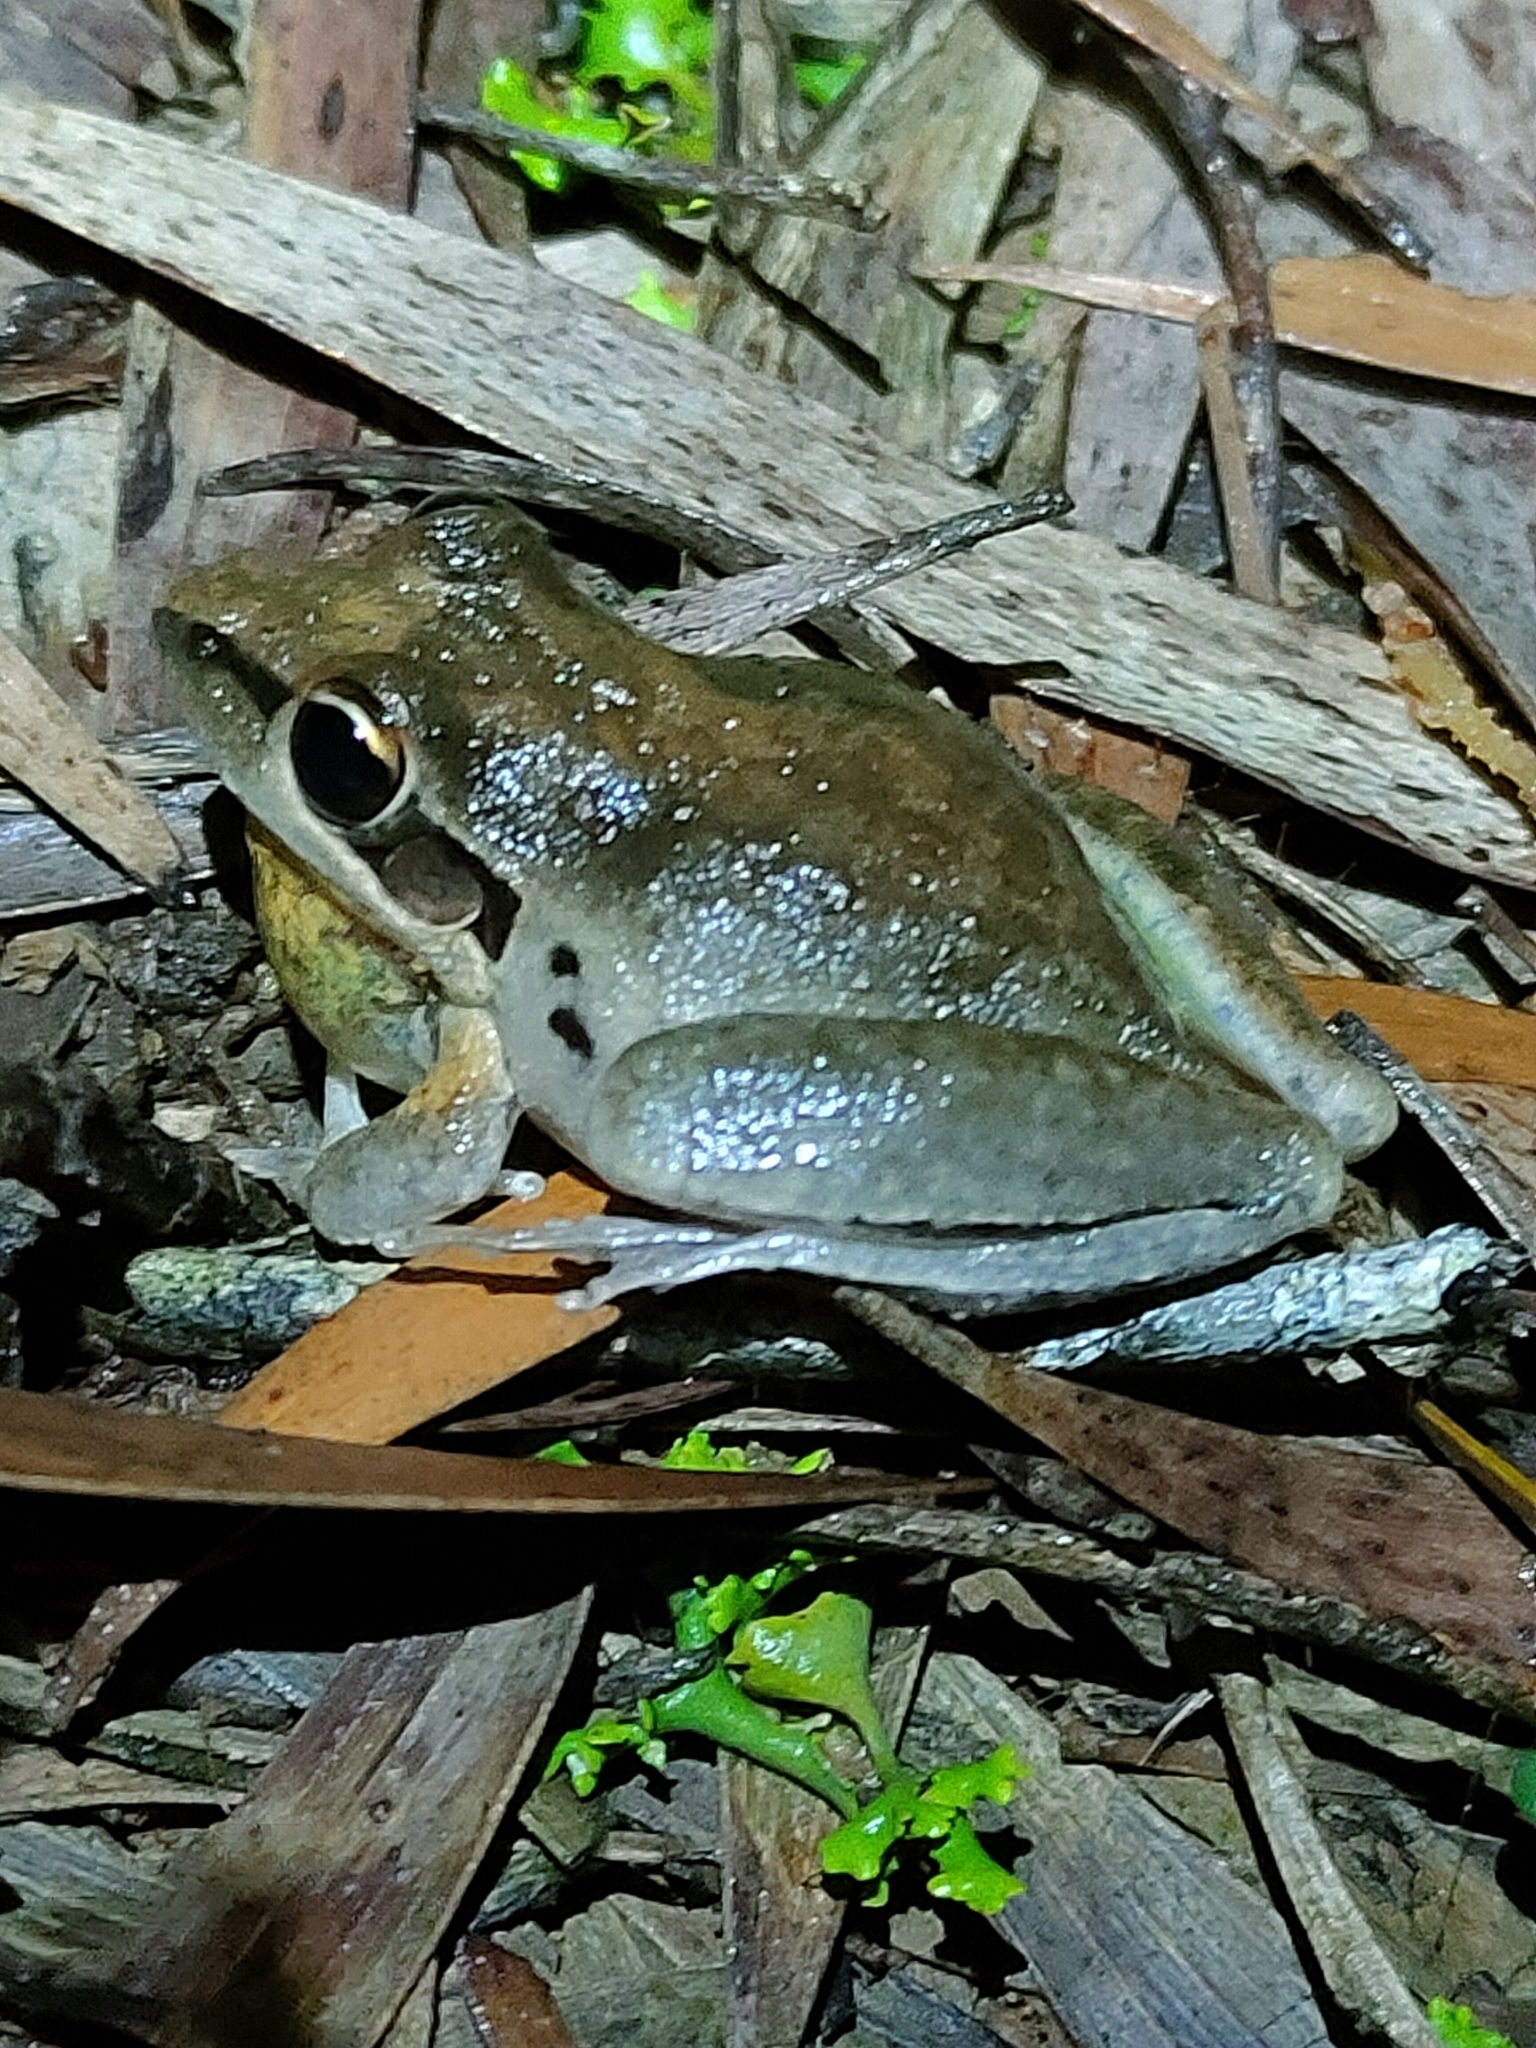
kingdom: Animalia
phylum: Chordata
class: Amphibia
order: Anura
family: Pelodryadidae
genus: Litoria
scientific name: Litoria latopalmata
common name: Broad-palmed rocket frog
